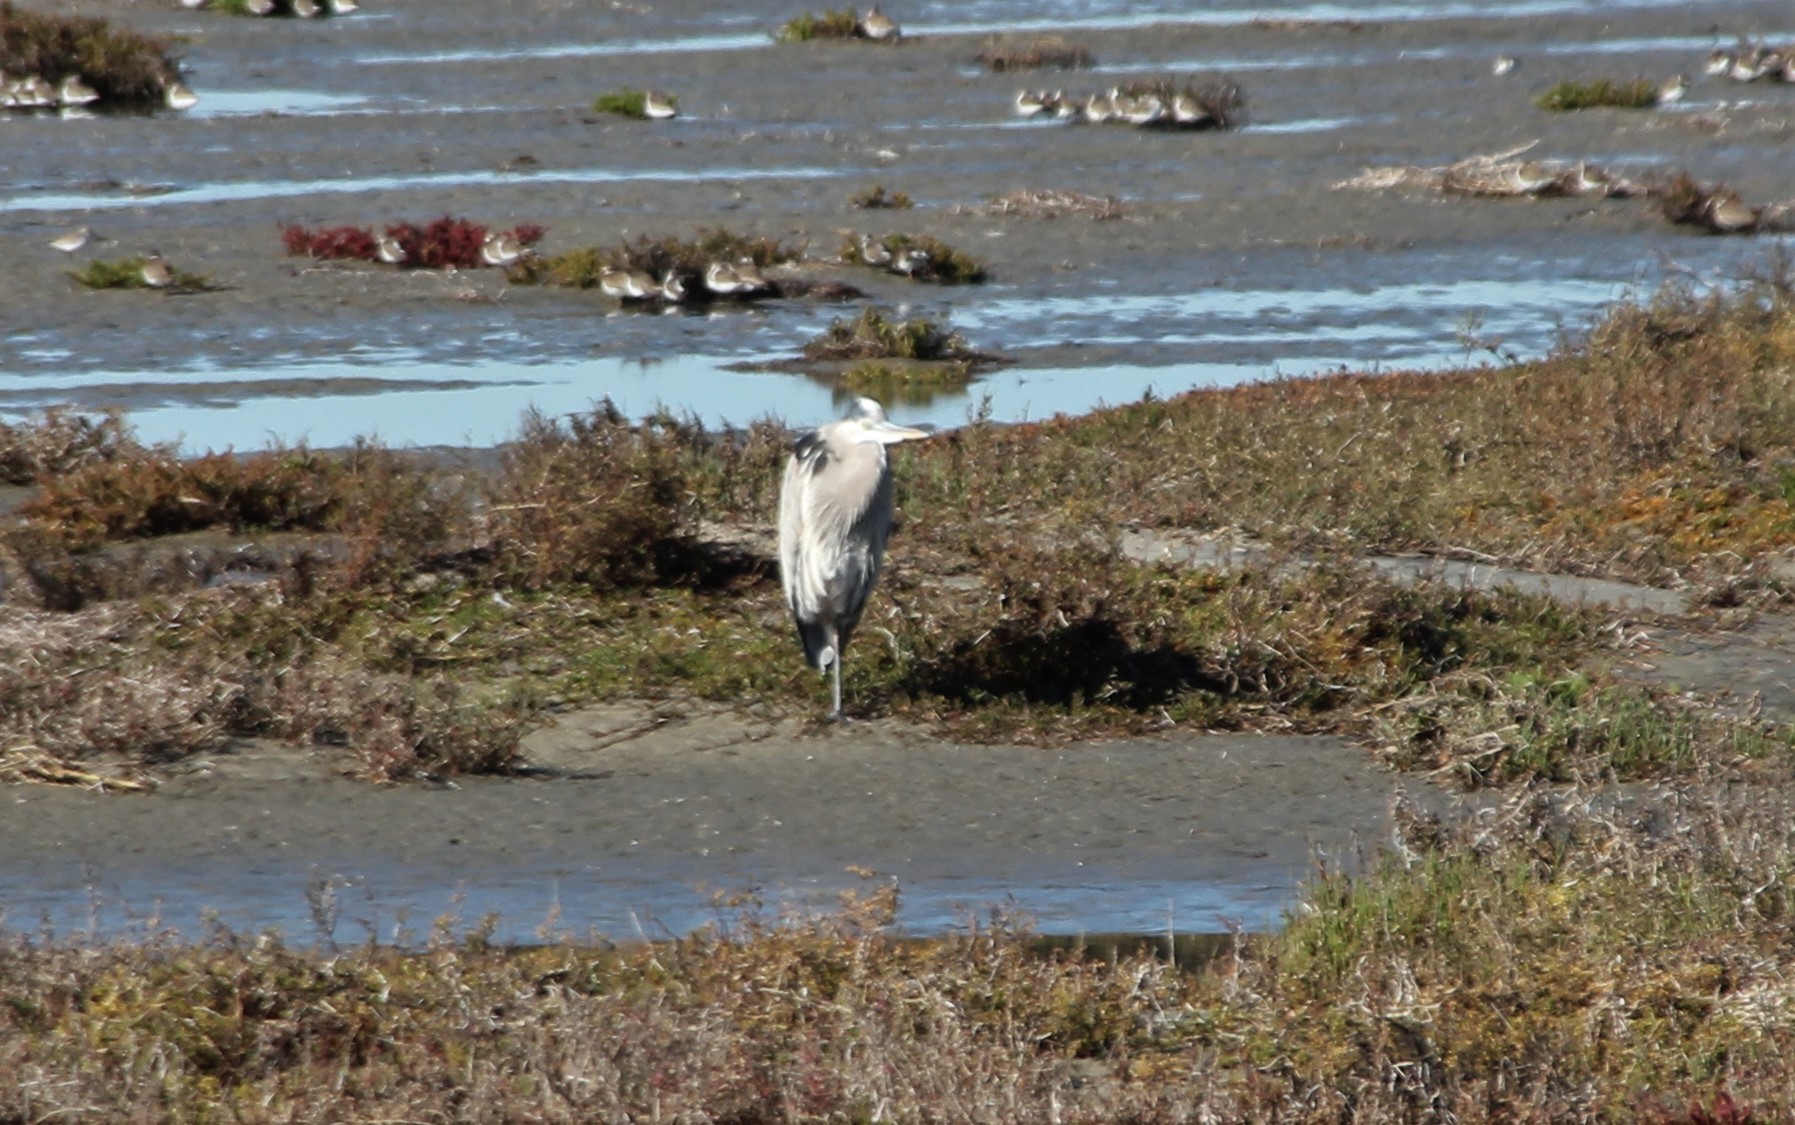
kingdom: Animalia
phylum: Chordata
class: Aves
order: Pelecaniformes
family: Ardeidae
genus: Ardea
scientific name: Ardea herodias
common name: Great blue heron
